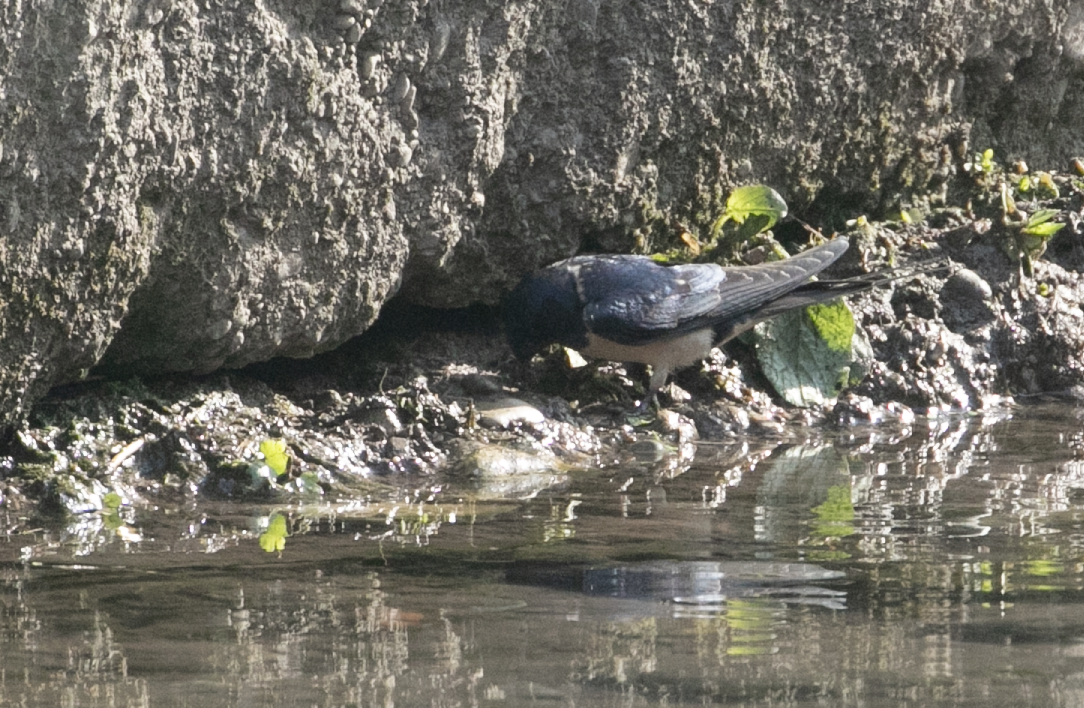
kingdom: Animalia
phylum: Chordata
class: Aves
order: Passeriformes
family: Hirundinidae
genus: Hirundo
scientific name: Hirundo rustica
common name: Barn swallow
